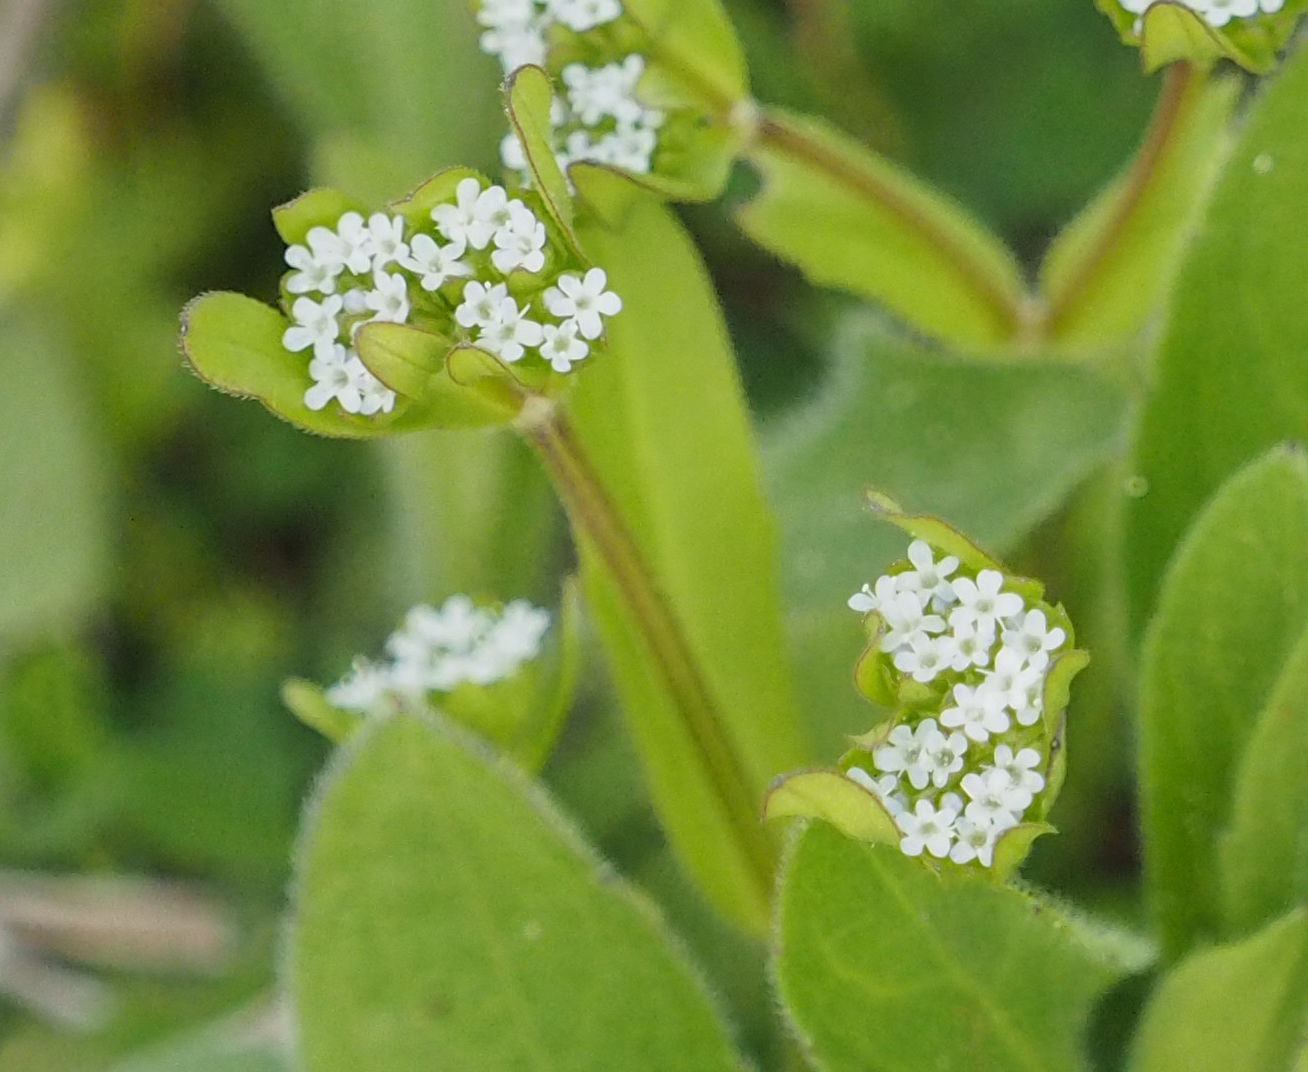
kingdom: Plantae
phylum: Tracheophyta
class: Magnoliopsida
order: Dipsacales
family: Caprifoliaceae
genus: Valerianella
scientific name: Valerianella locusta
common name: Common cornsalad
